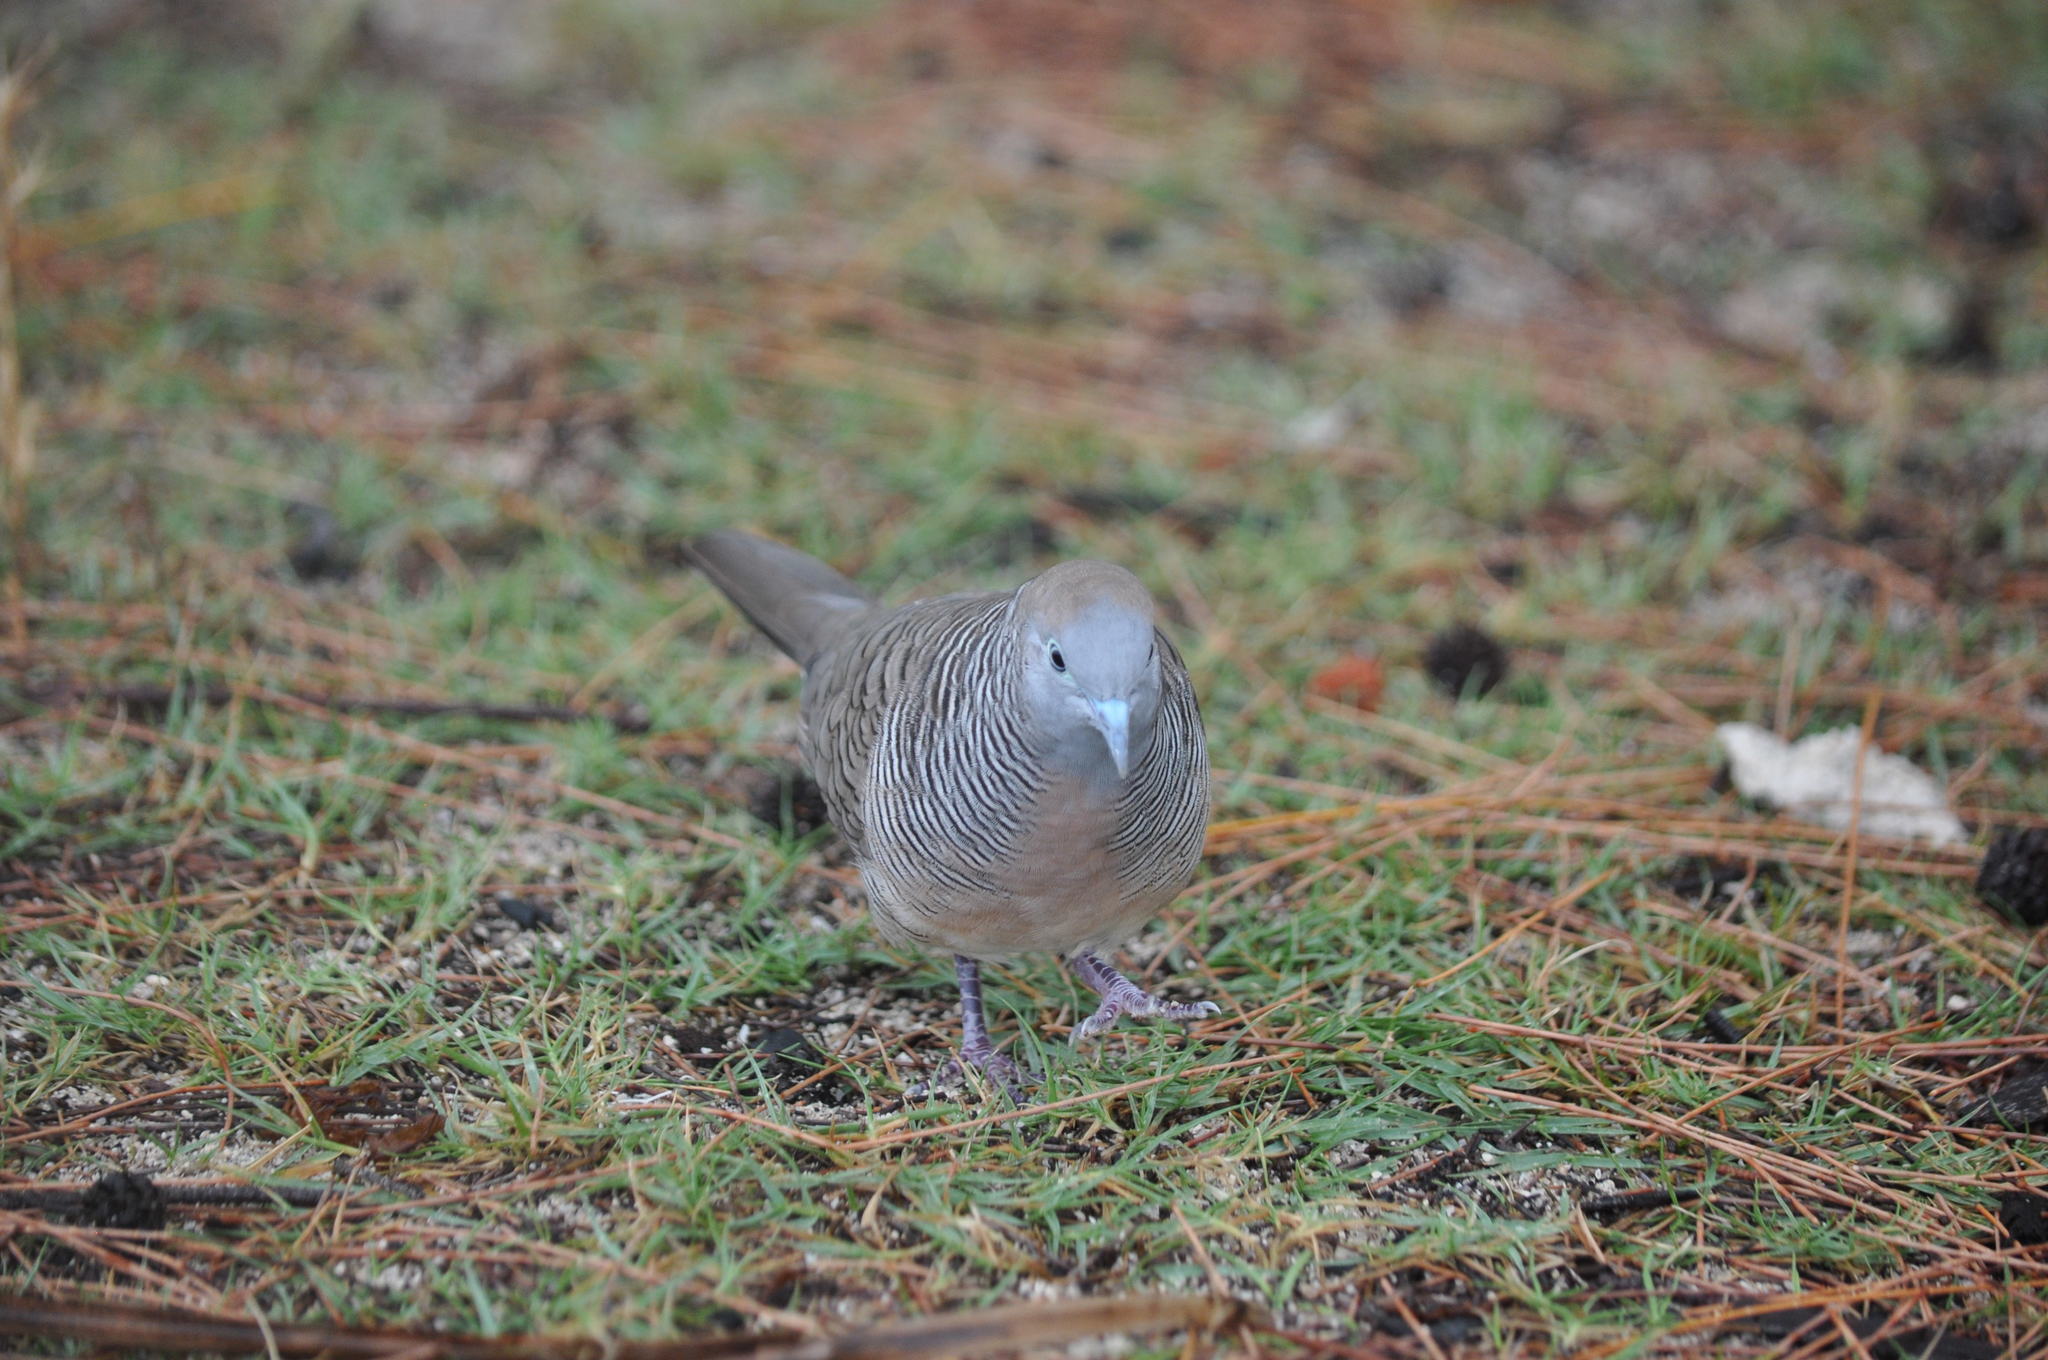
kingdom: Animalia
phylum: Chordata
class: Aves
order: Columbiformes
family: Columbidae
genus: Geopelia
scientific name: Geopelia striata
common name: Zebra dove
